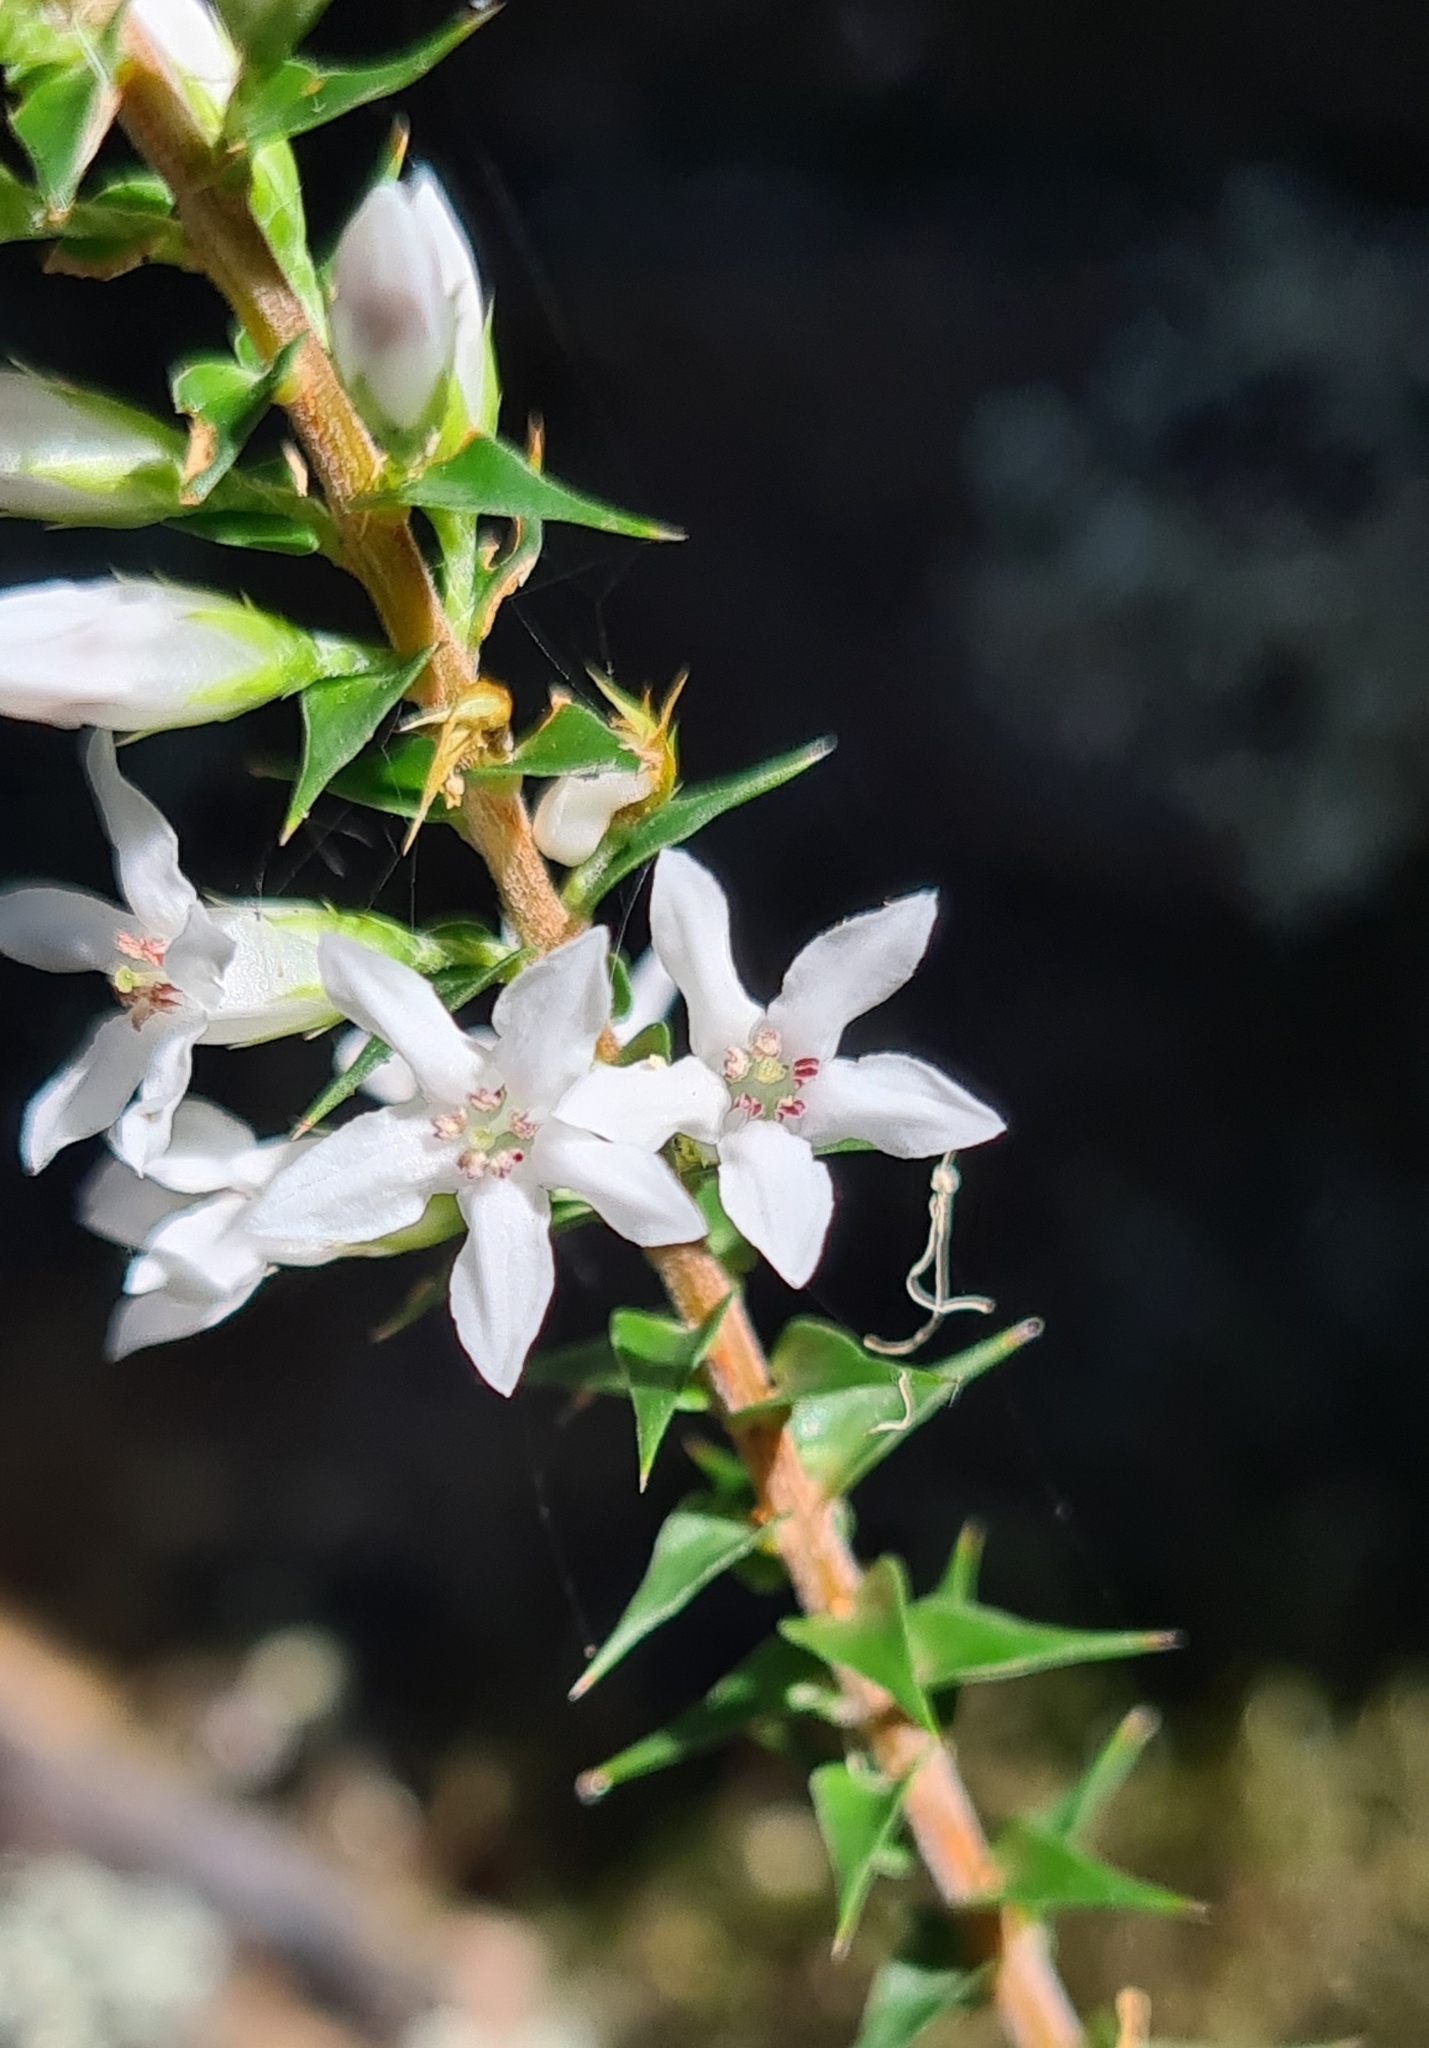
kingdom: Plantae
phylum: Tracheophyta
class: Magnoliopsida
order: Ericales
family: Ericaceae
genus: Epacris
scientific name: Epacris pulchella
